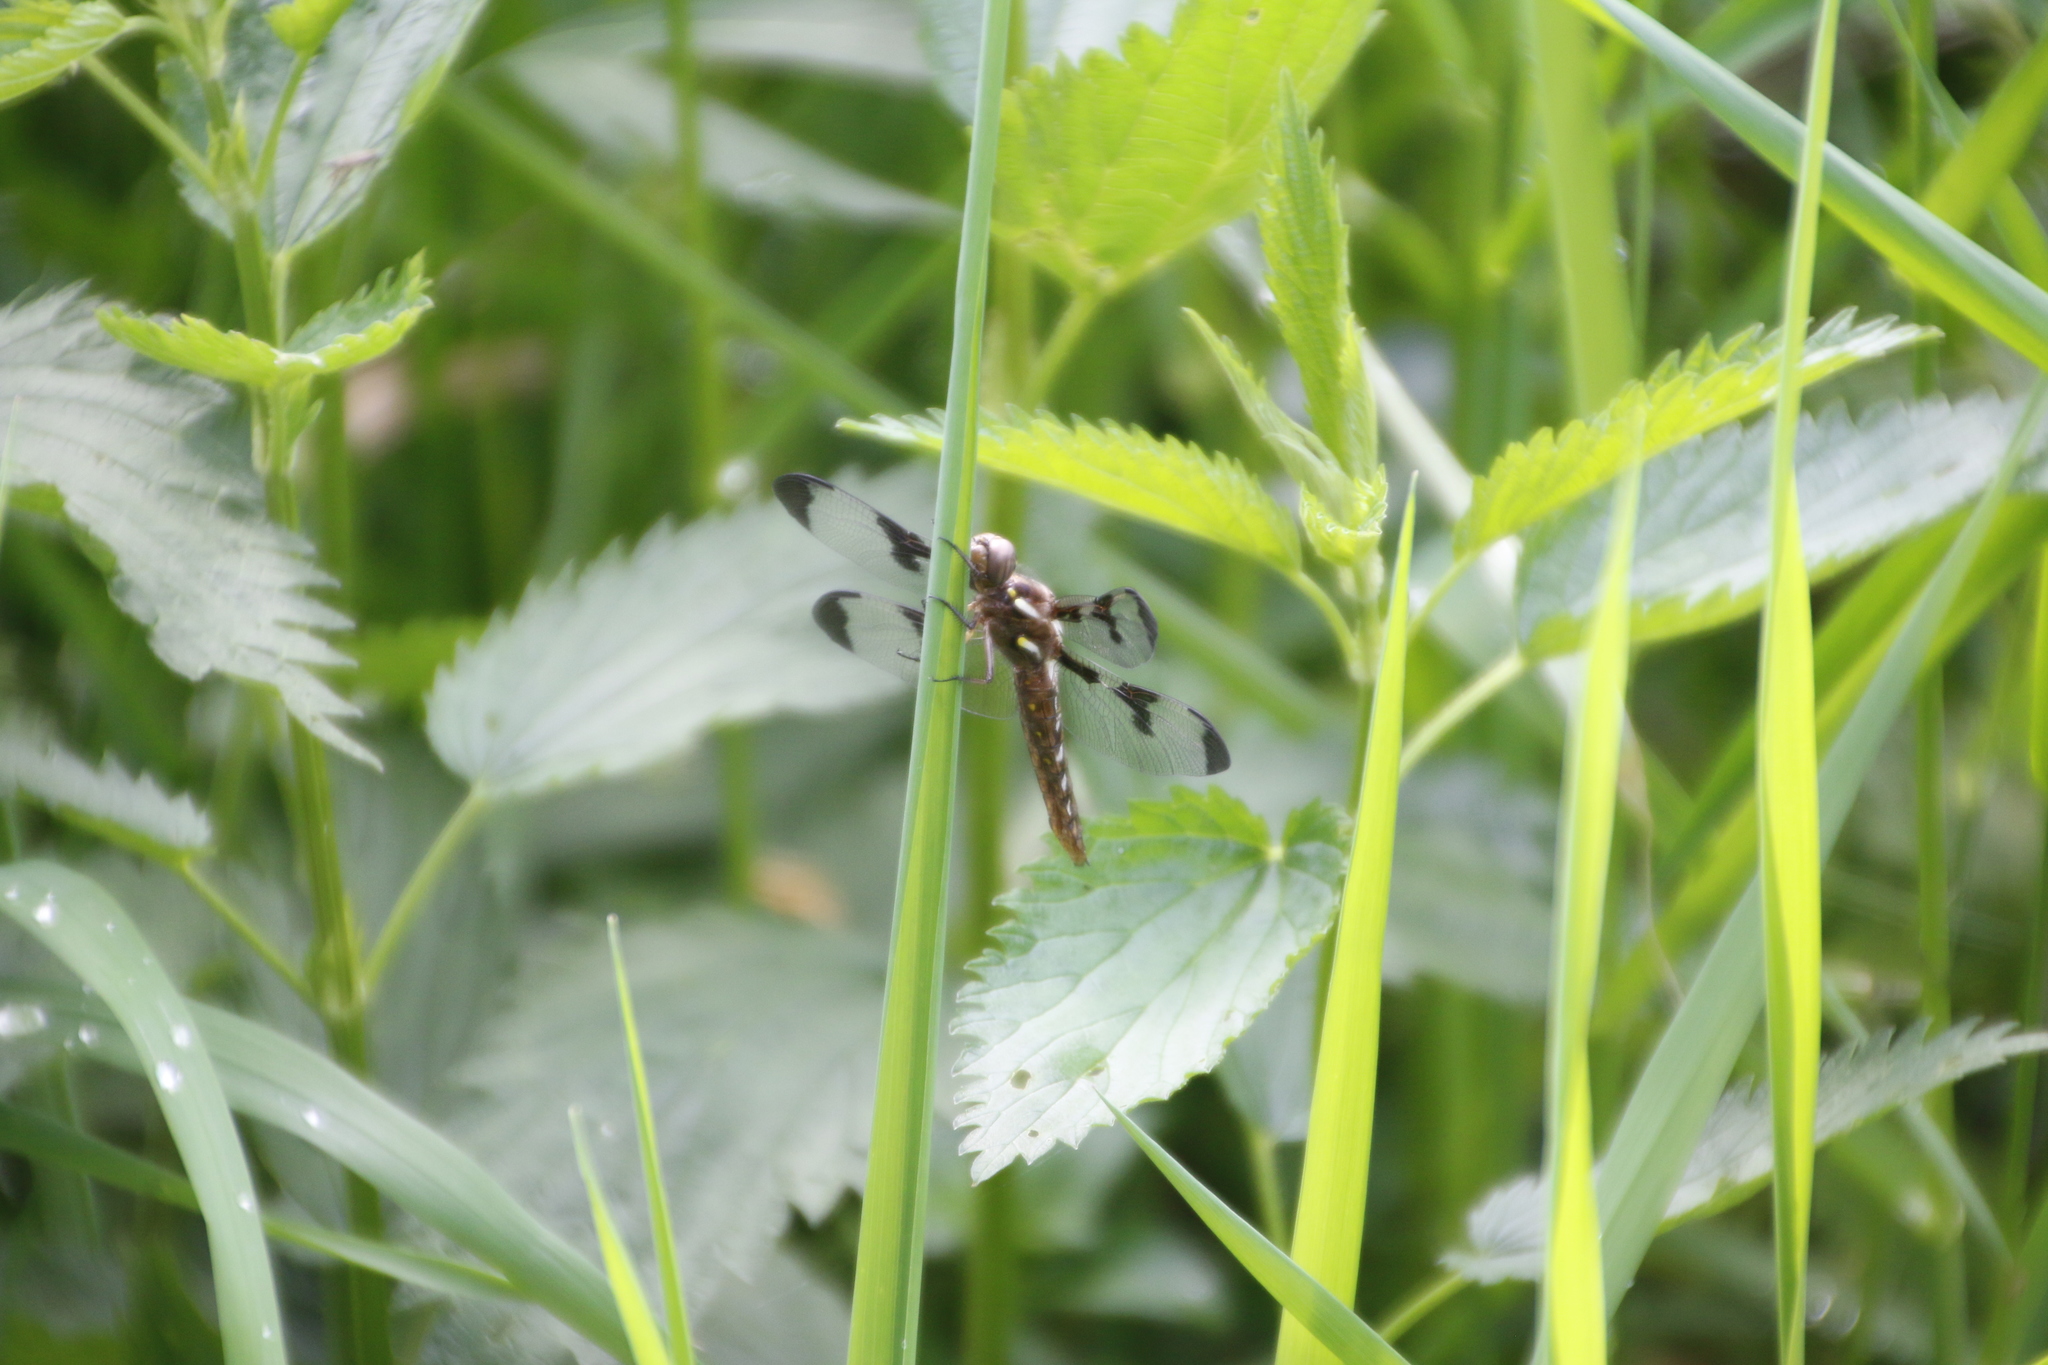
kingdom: Animalia
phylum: Arthropoda
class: Insecta
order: Odonata
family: Libellulidae
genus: Plathemis
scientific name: Plathemis lydia
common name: Common whitetail
